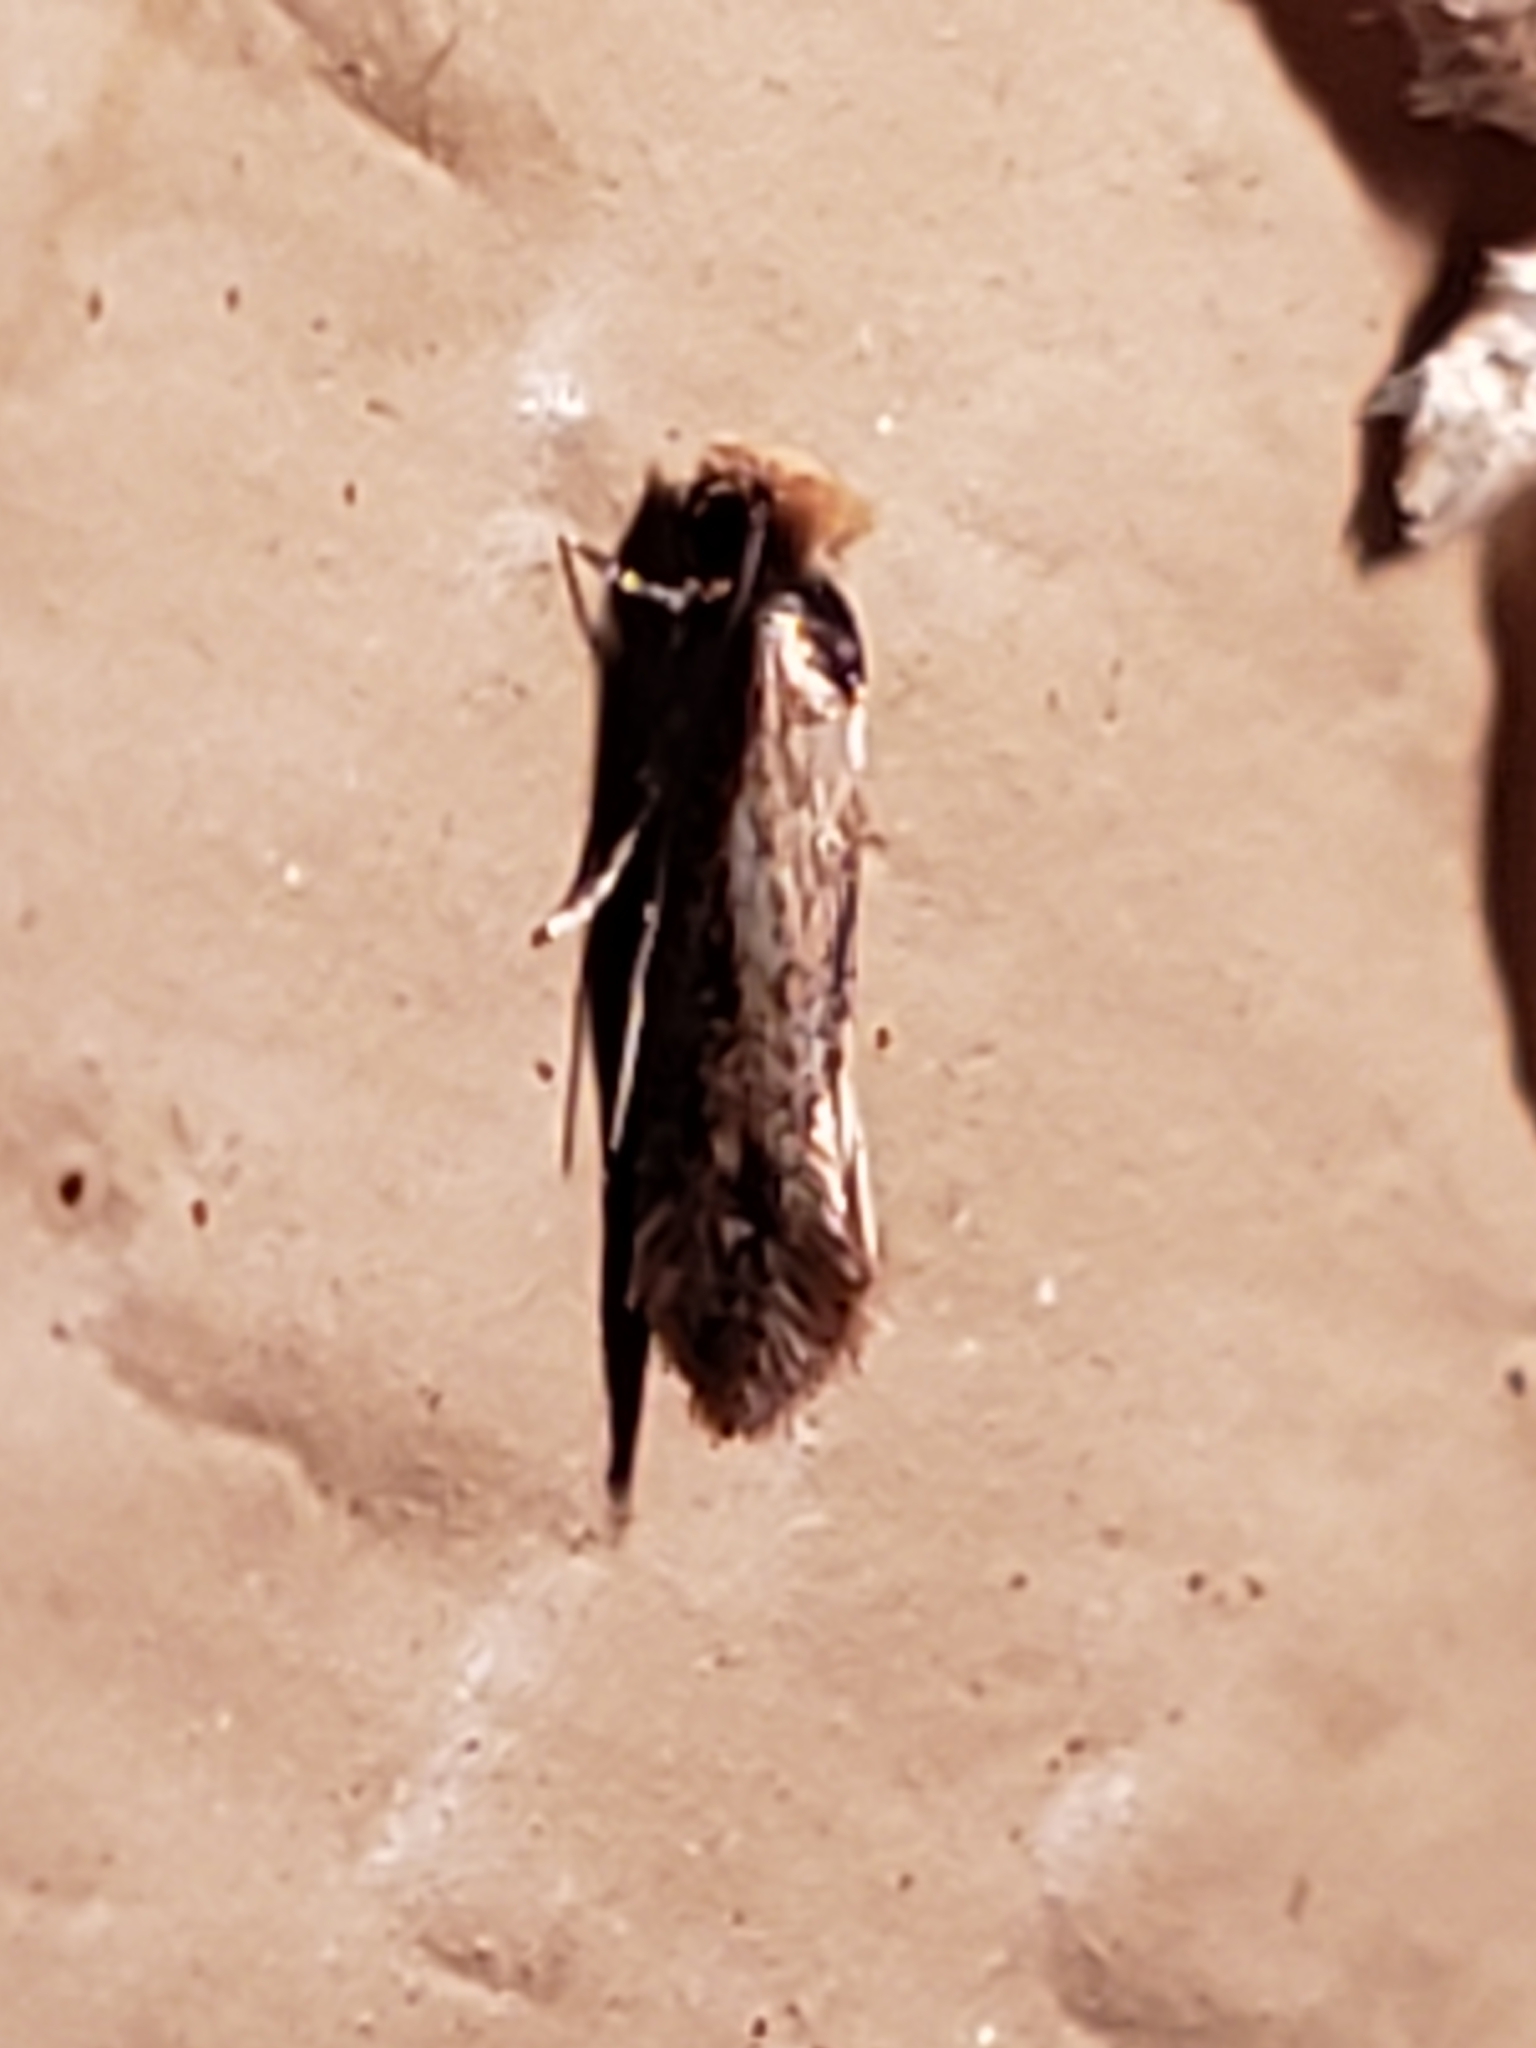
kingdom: Animalia
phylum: Arthropoda
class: Insecta
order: Lepidoptera
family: Meessiidae
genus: Homostinea
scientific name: Homostinea curviliniella
